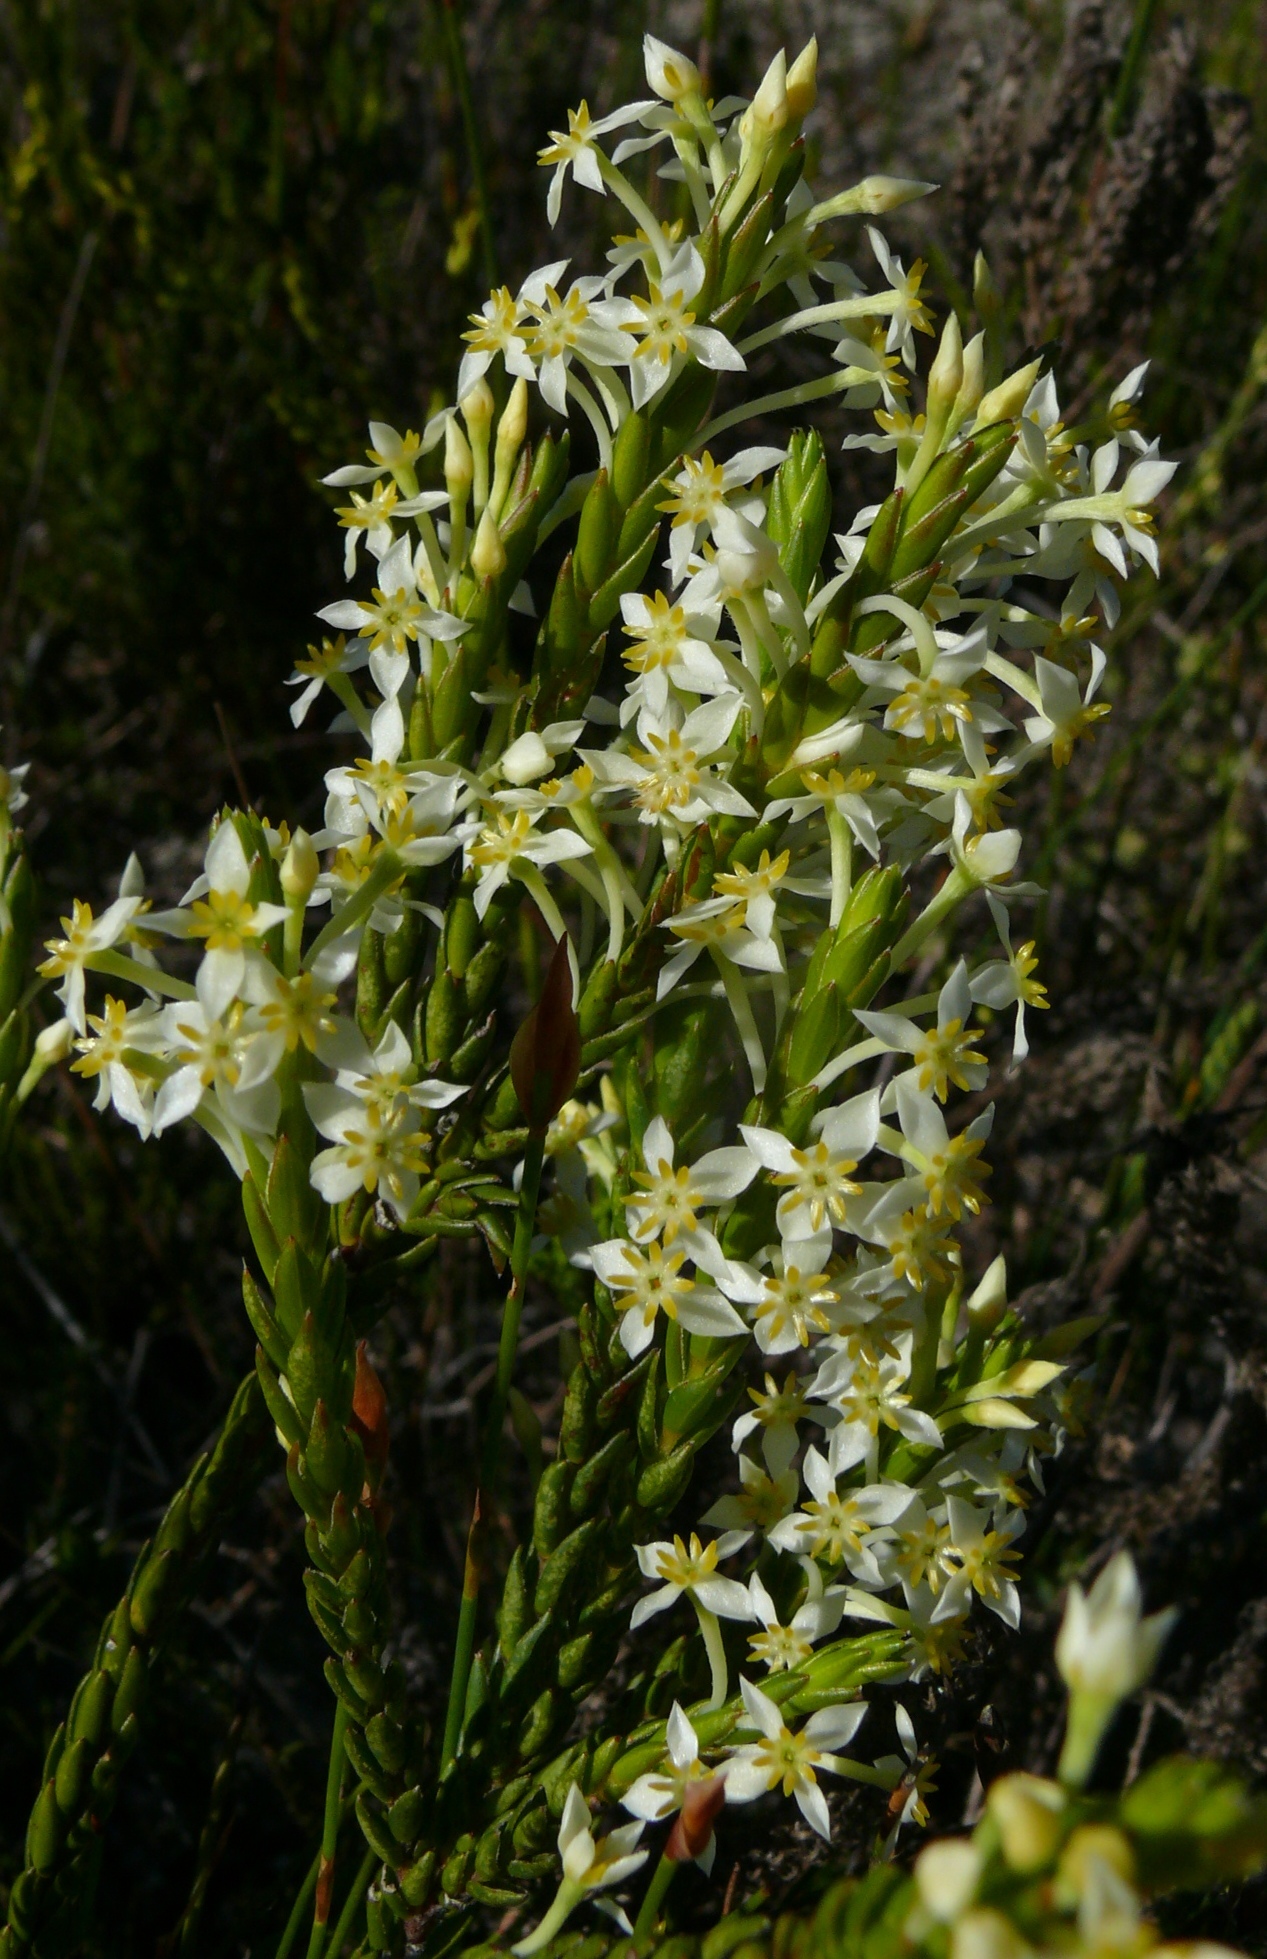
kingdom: Plantae
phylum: Tracheophyta
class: Magnoliopsida
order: Malvales
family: Thymelaeaceae
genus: Struthiola
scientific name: Struthiola ciliata
